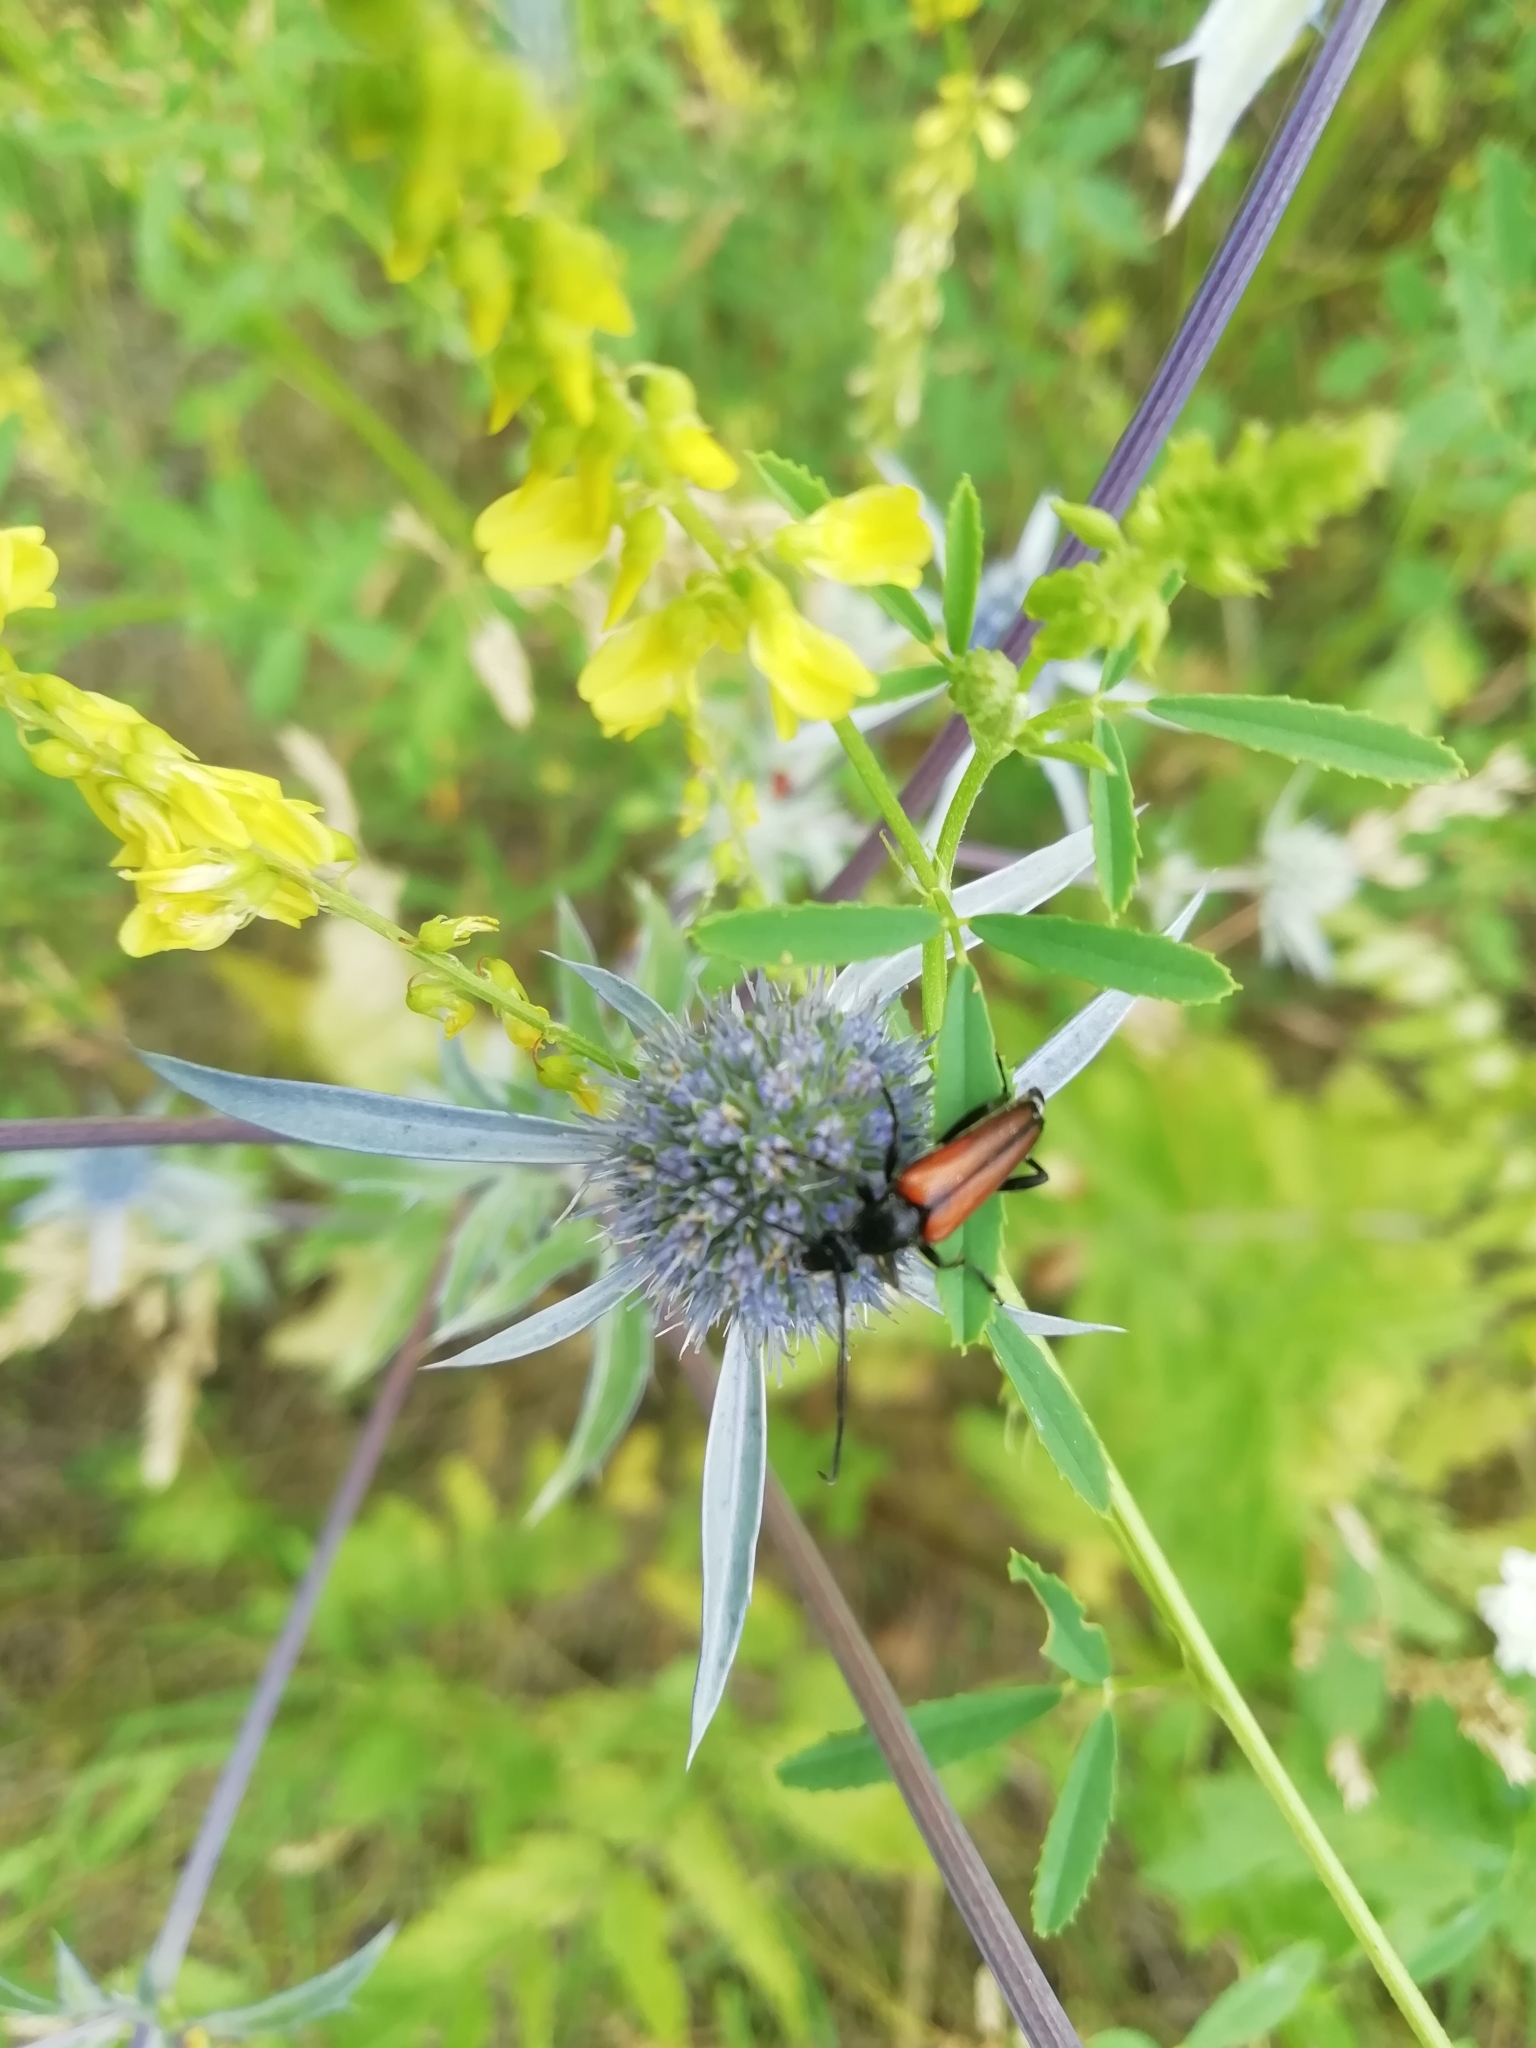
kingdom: Animalia
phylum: Arthropoda
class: Insecta
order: Coleoptera
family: Cerambycidae
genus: Stenurella
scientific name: Stenurella melanura
